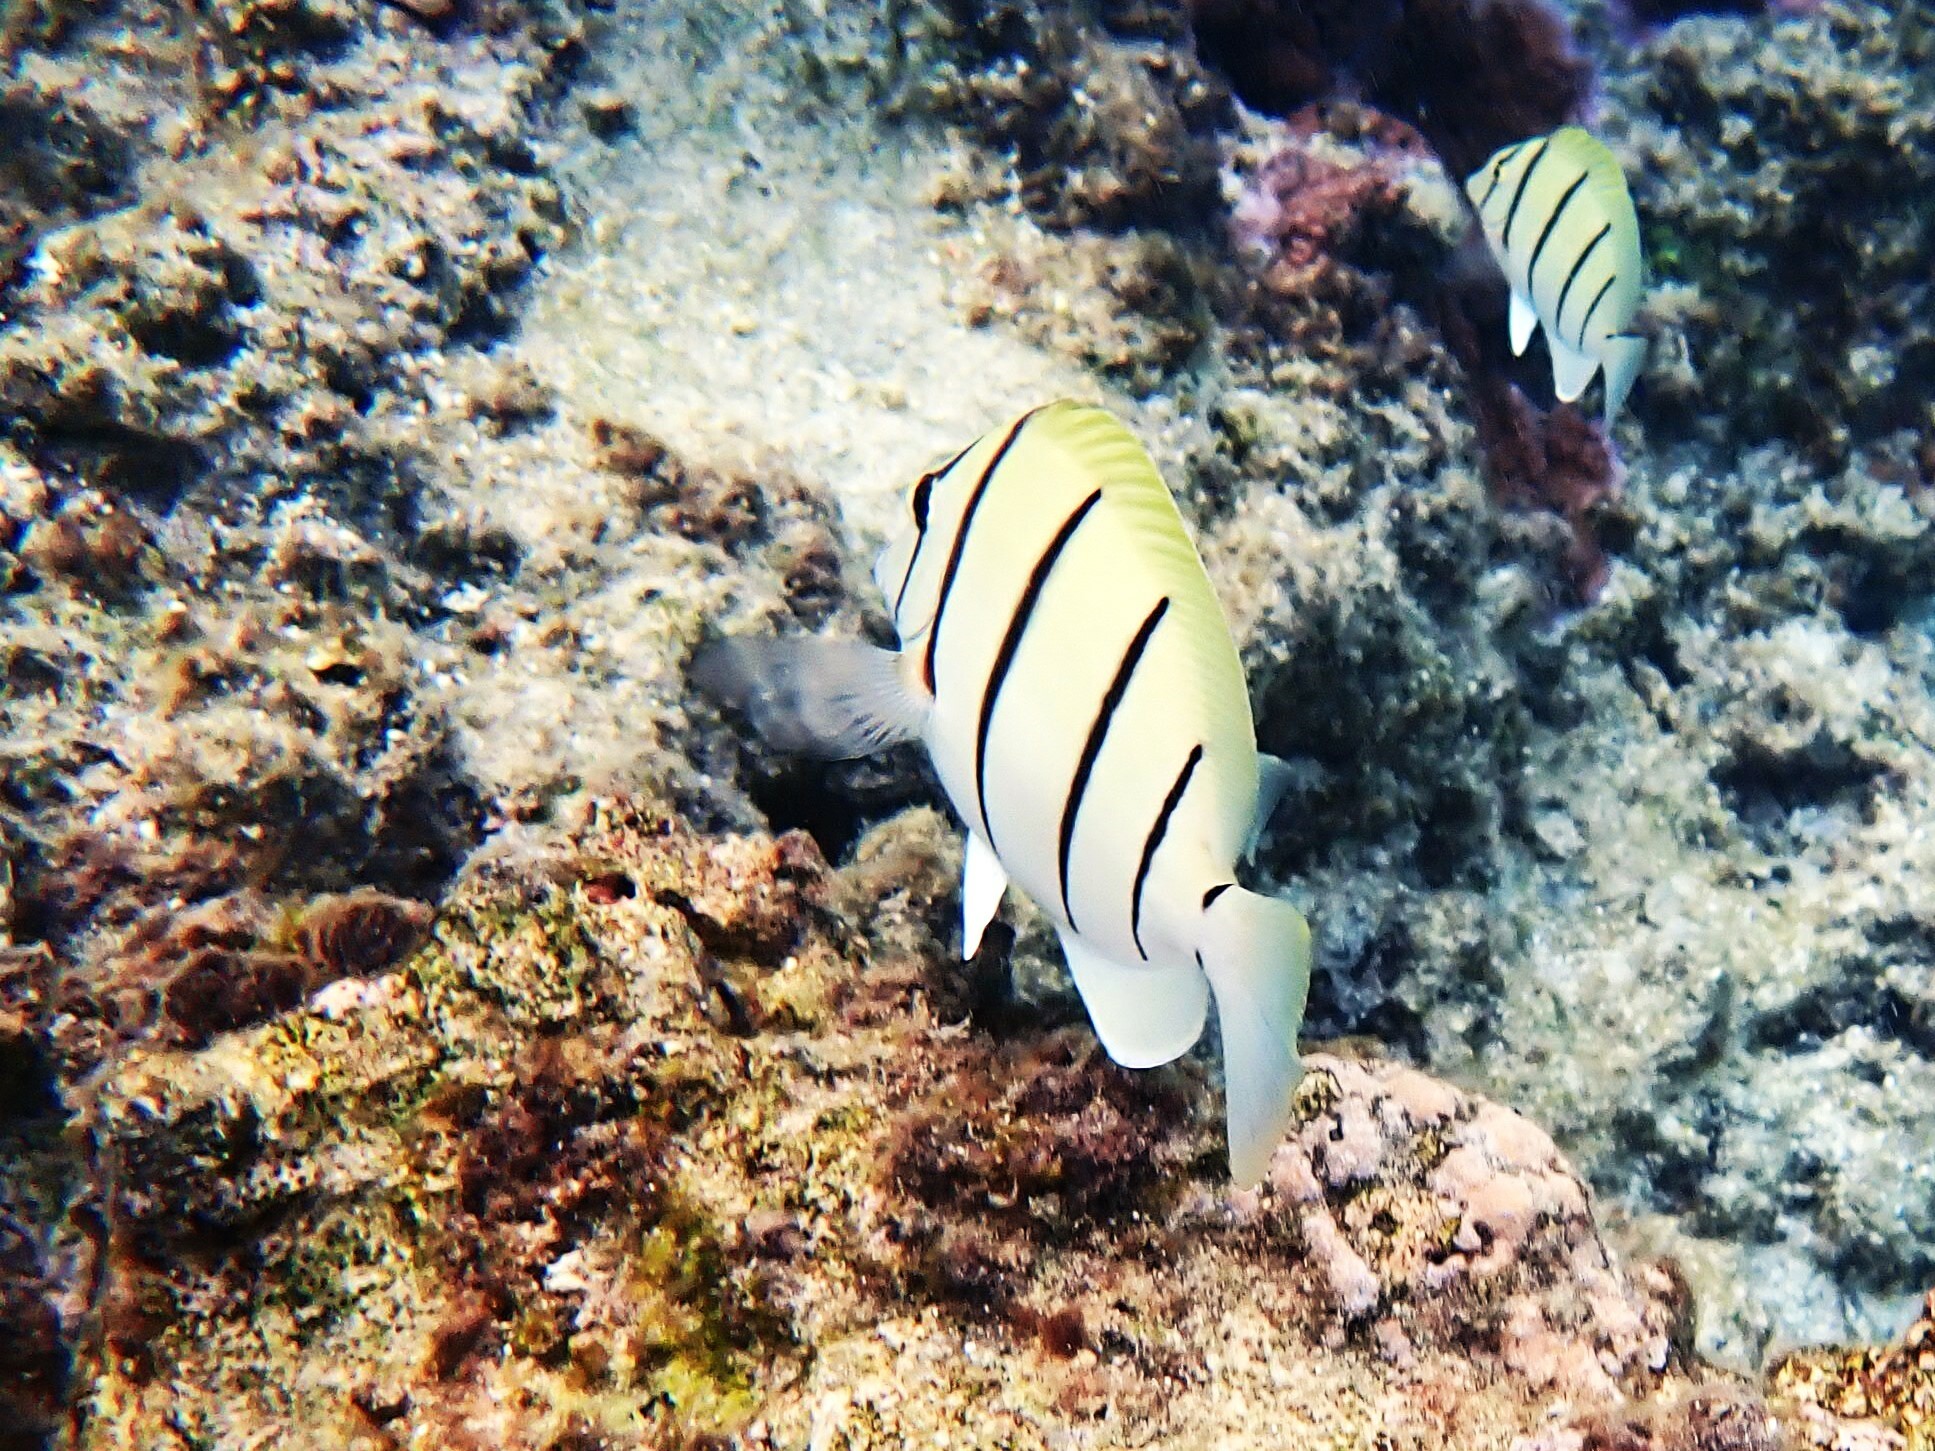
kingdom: Animalia
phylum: Chordata
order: Perciformes
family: Acanthuridae
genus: Acanthurus
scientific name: Acanthurus triostegus
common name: Convict surgeonfish
